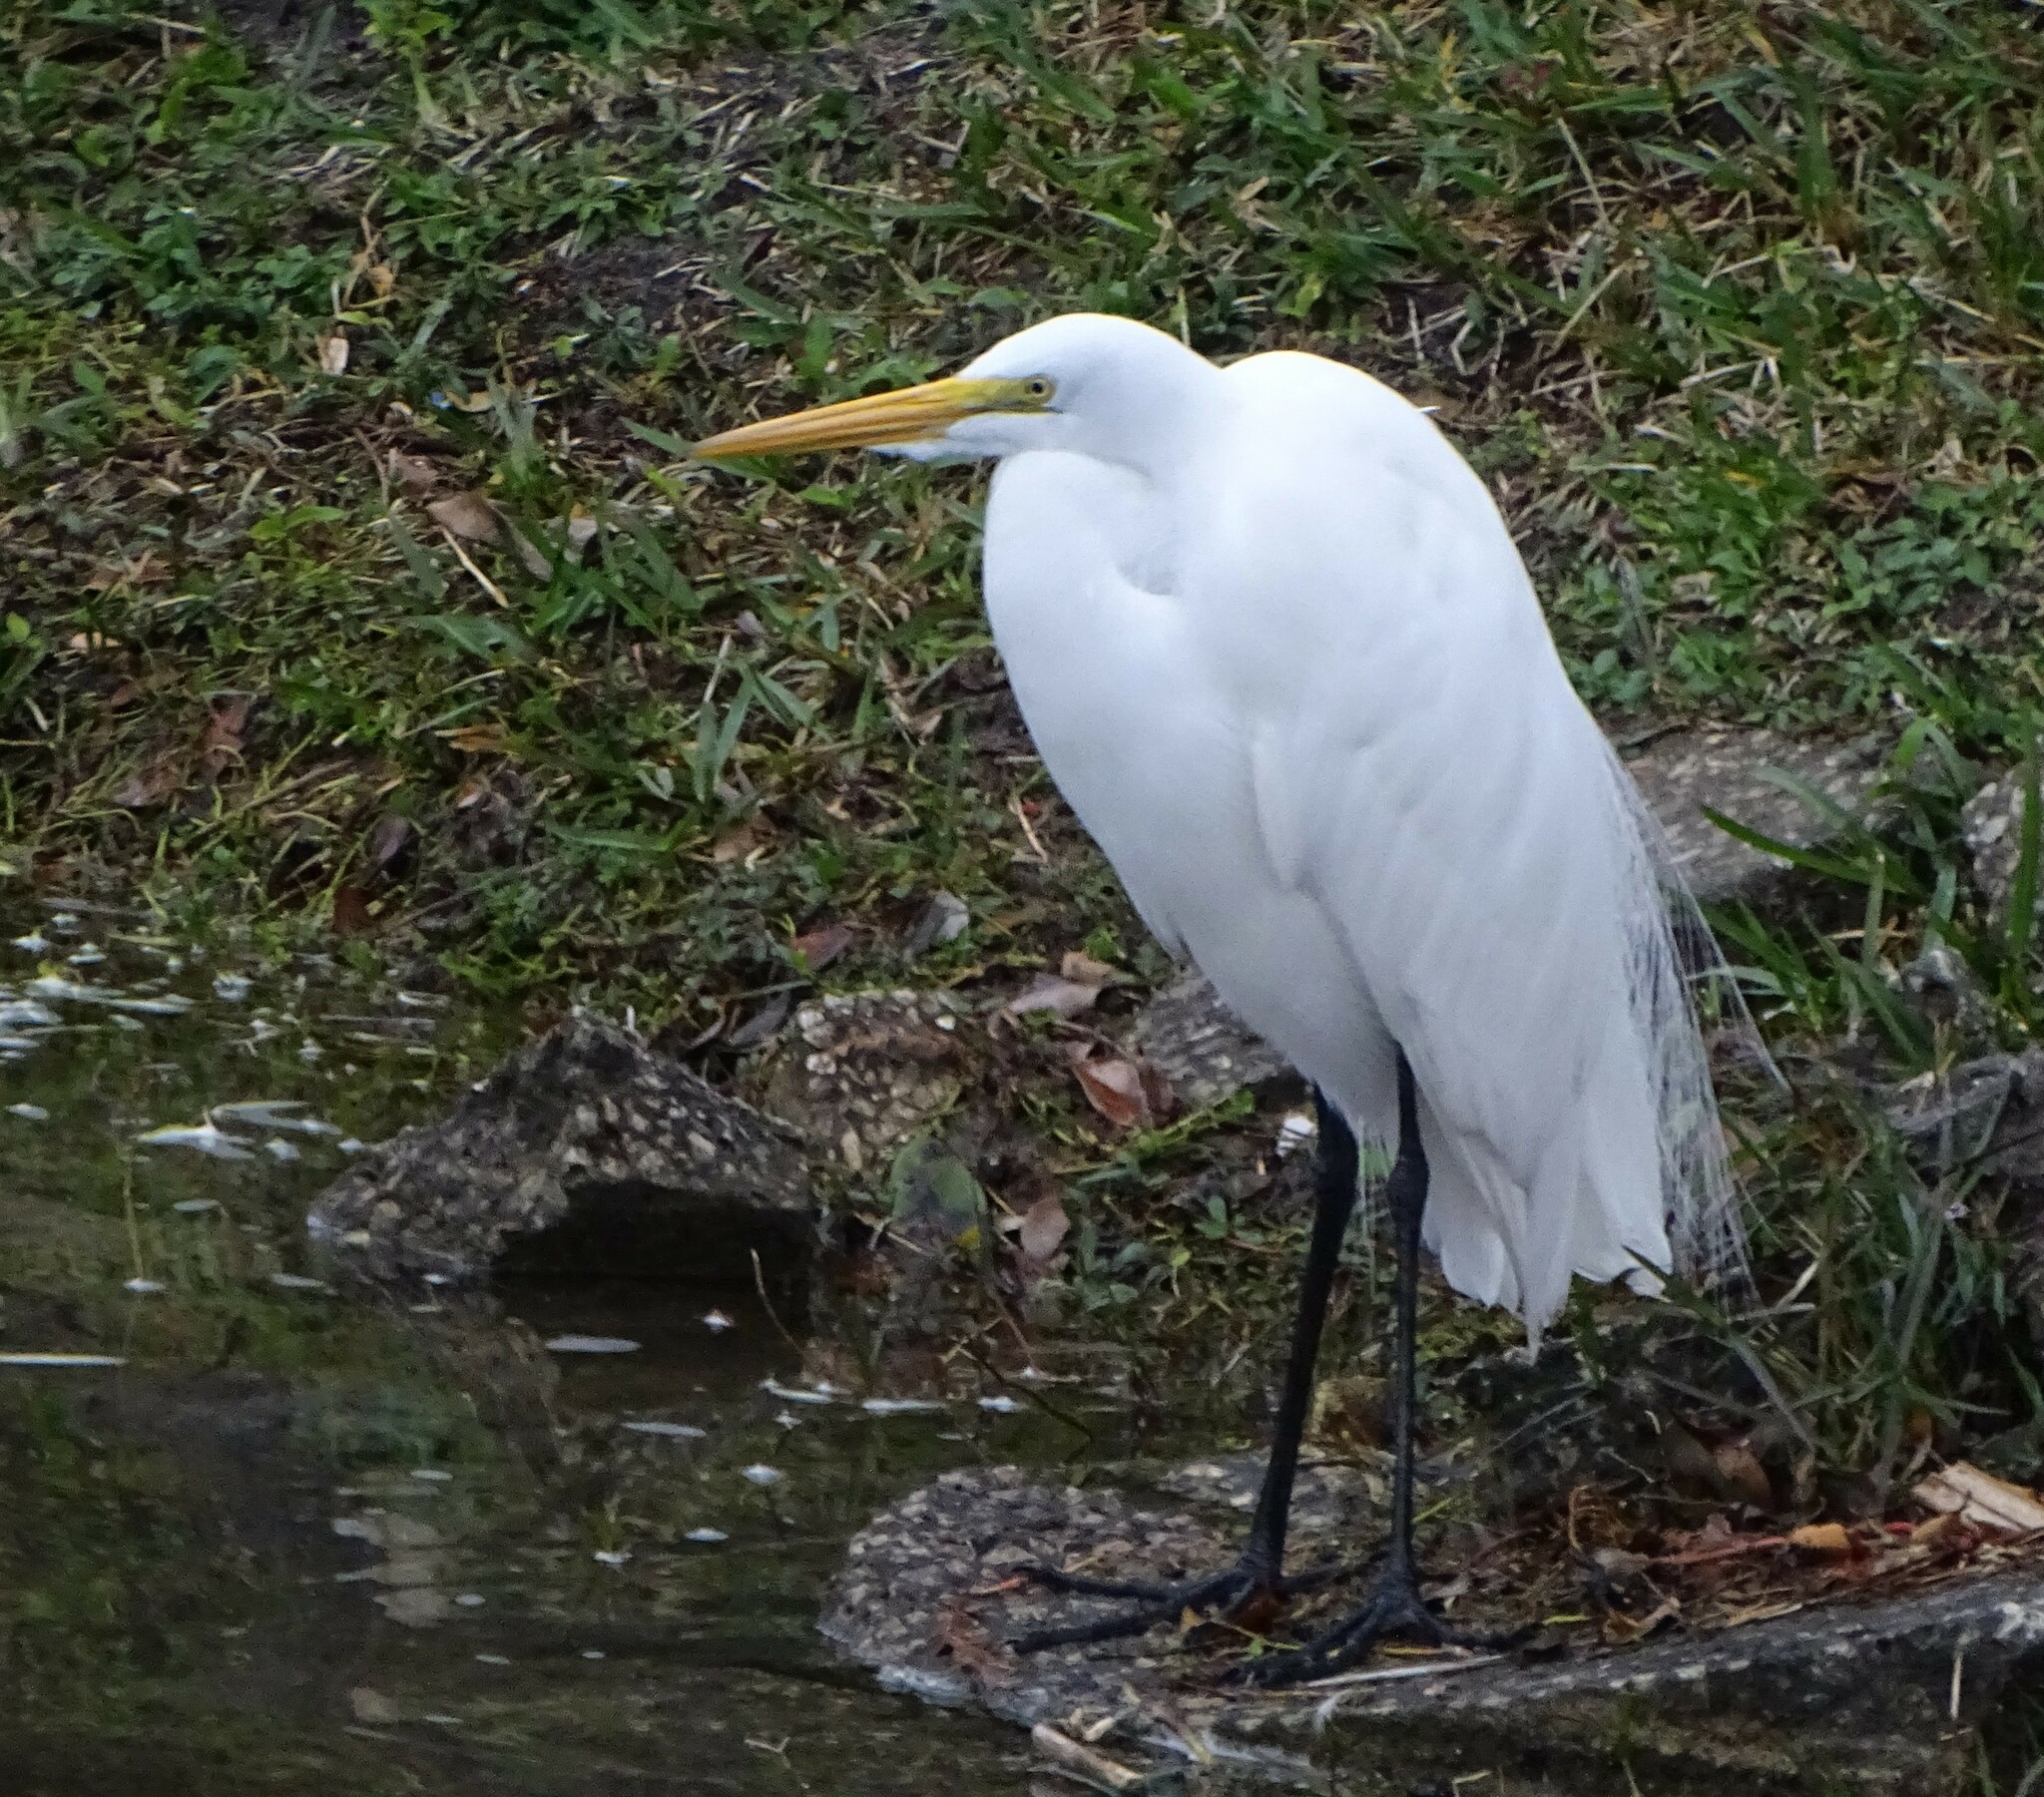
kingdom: Animalia
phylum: Chordata
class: Aves
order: Pelecaniformes
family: Ardeidae
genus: Ardea
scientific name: Ardea alba
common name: Great egret
